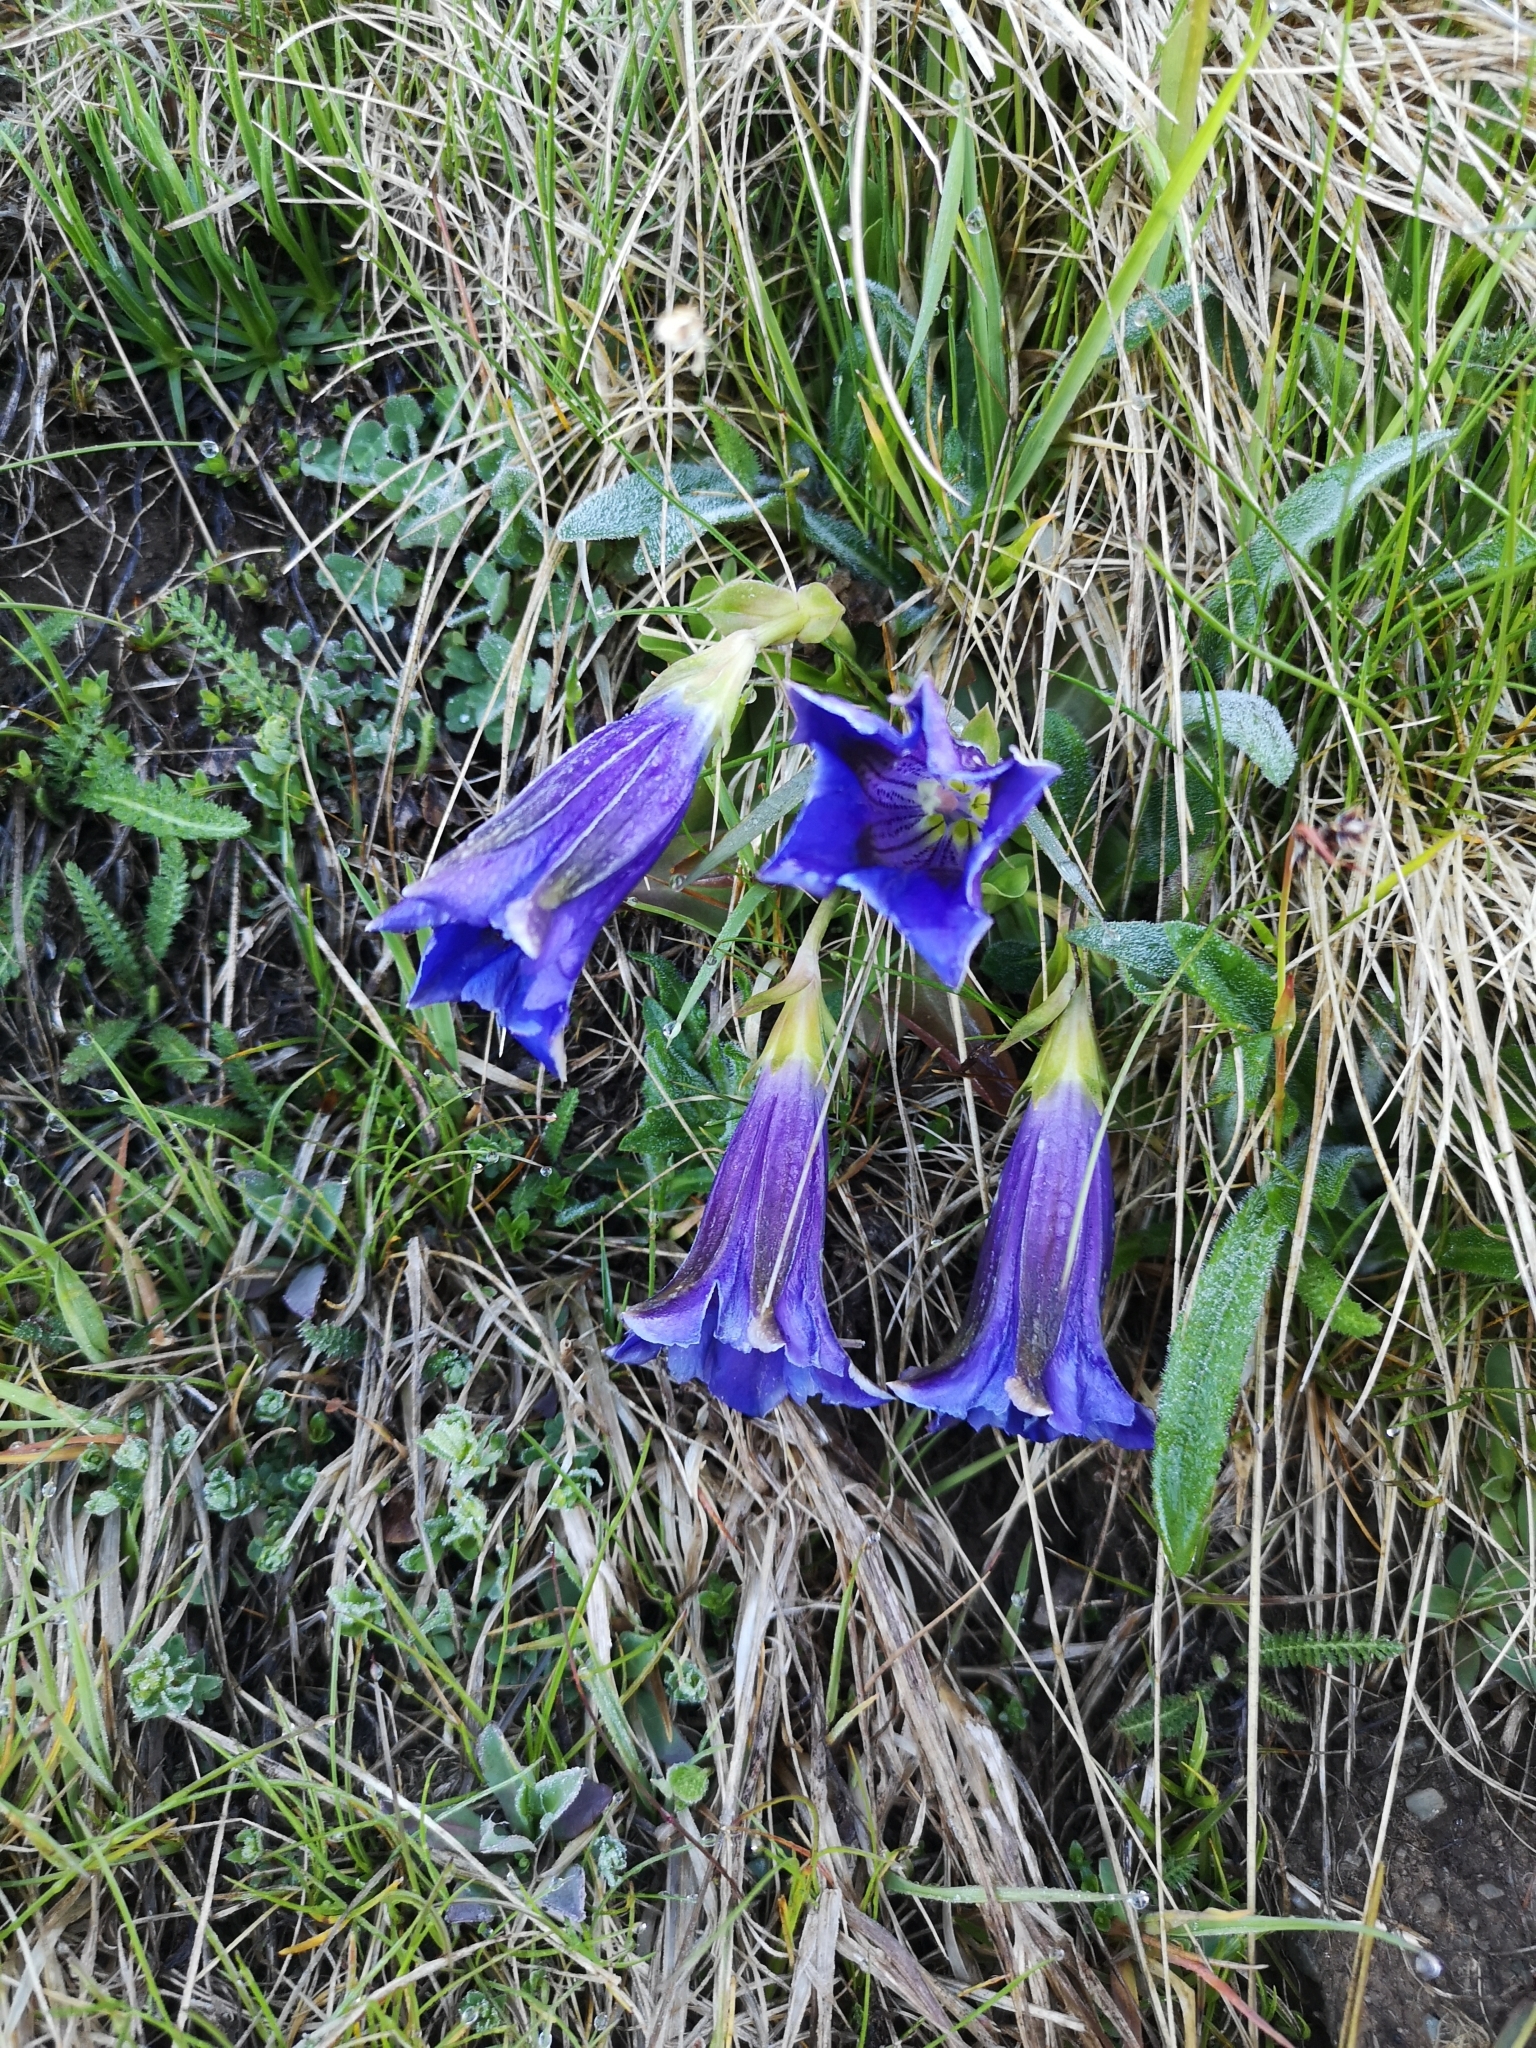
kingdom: Plantae
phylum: Tracheophyta
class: Magnoliopsida
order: Gentianales
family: Gentianaceae
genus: Gentiana
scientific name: Gentiana acaulis
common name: Trumpet gentian
